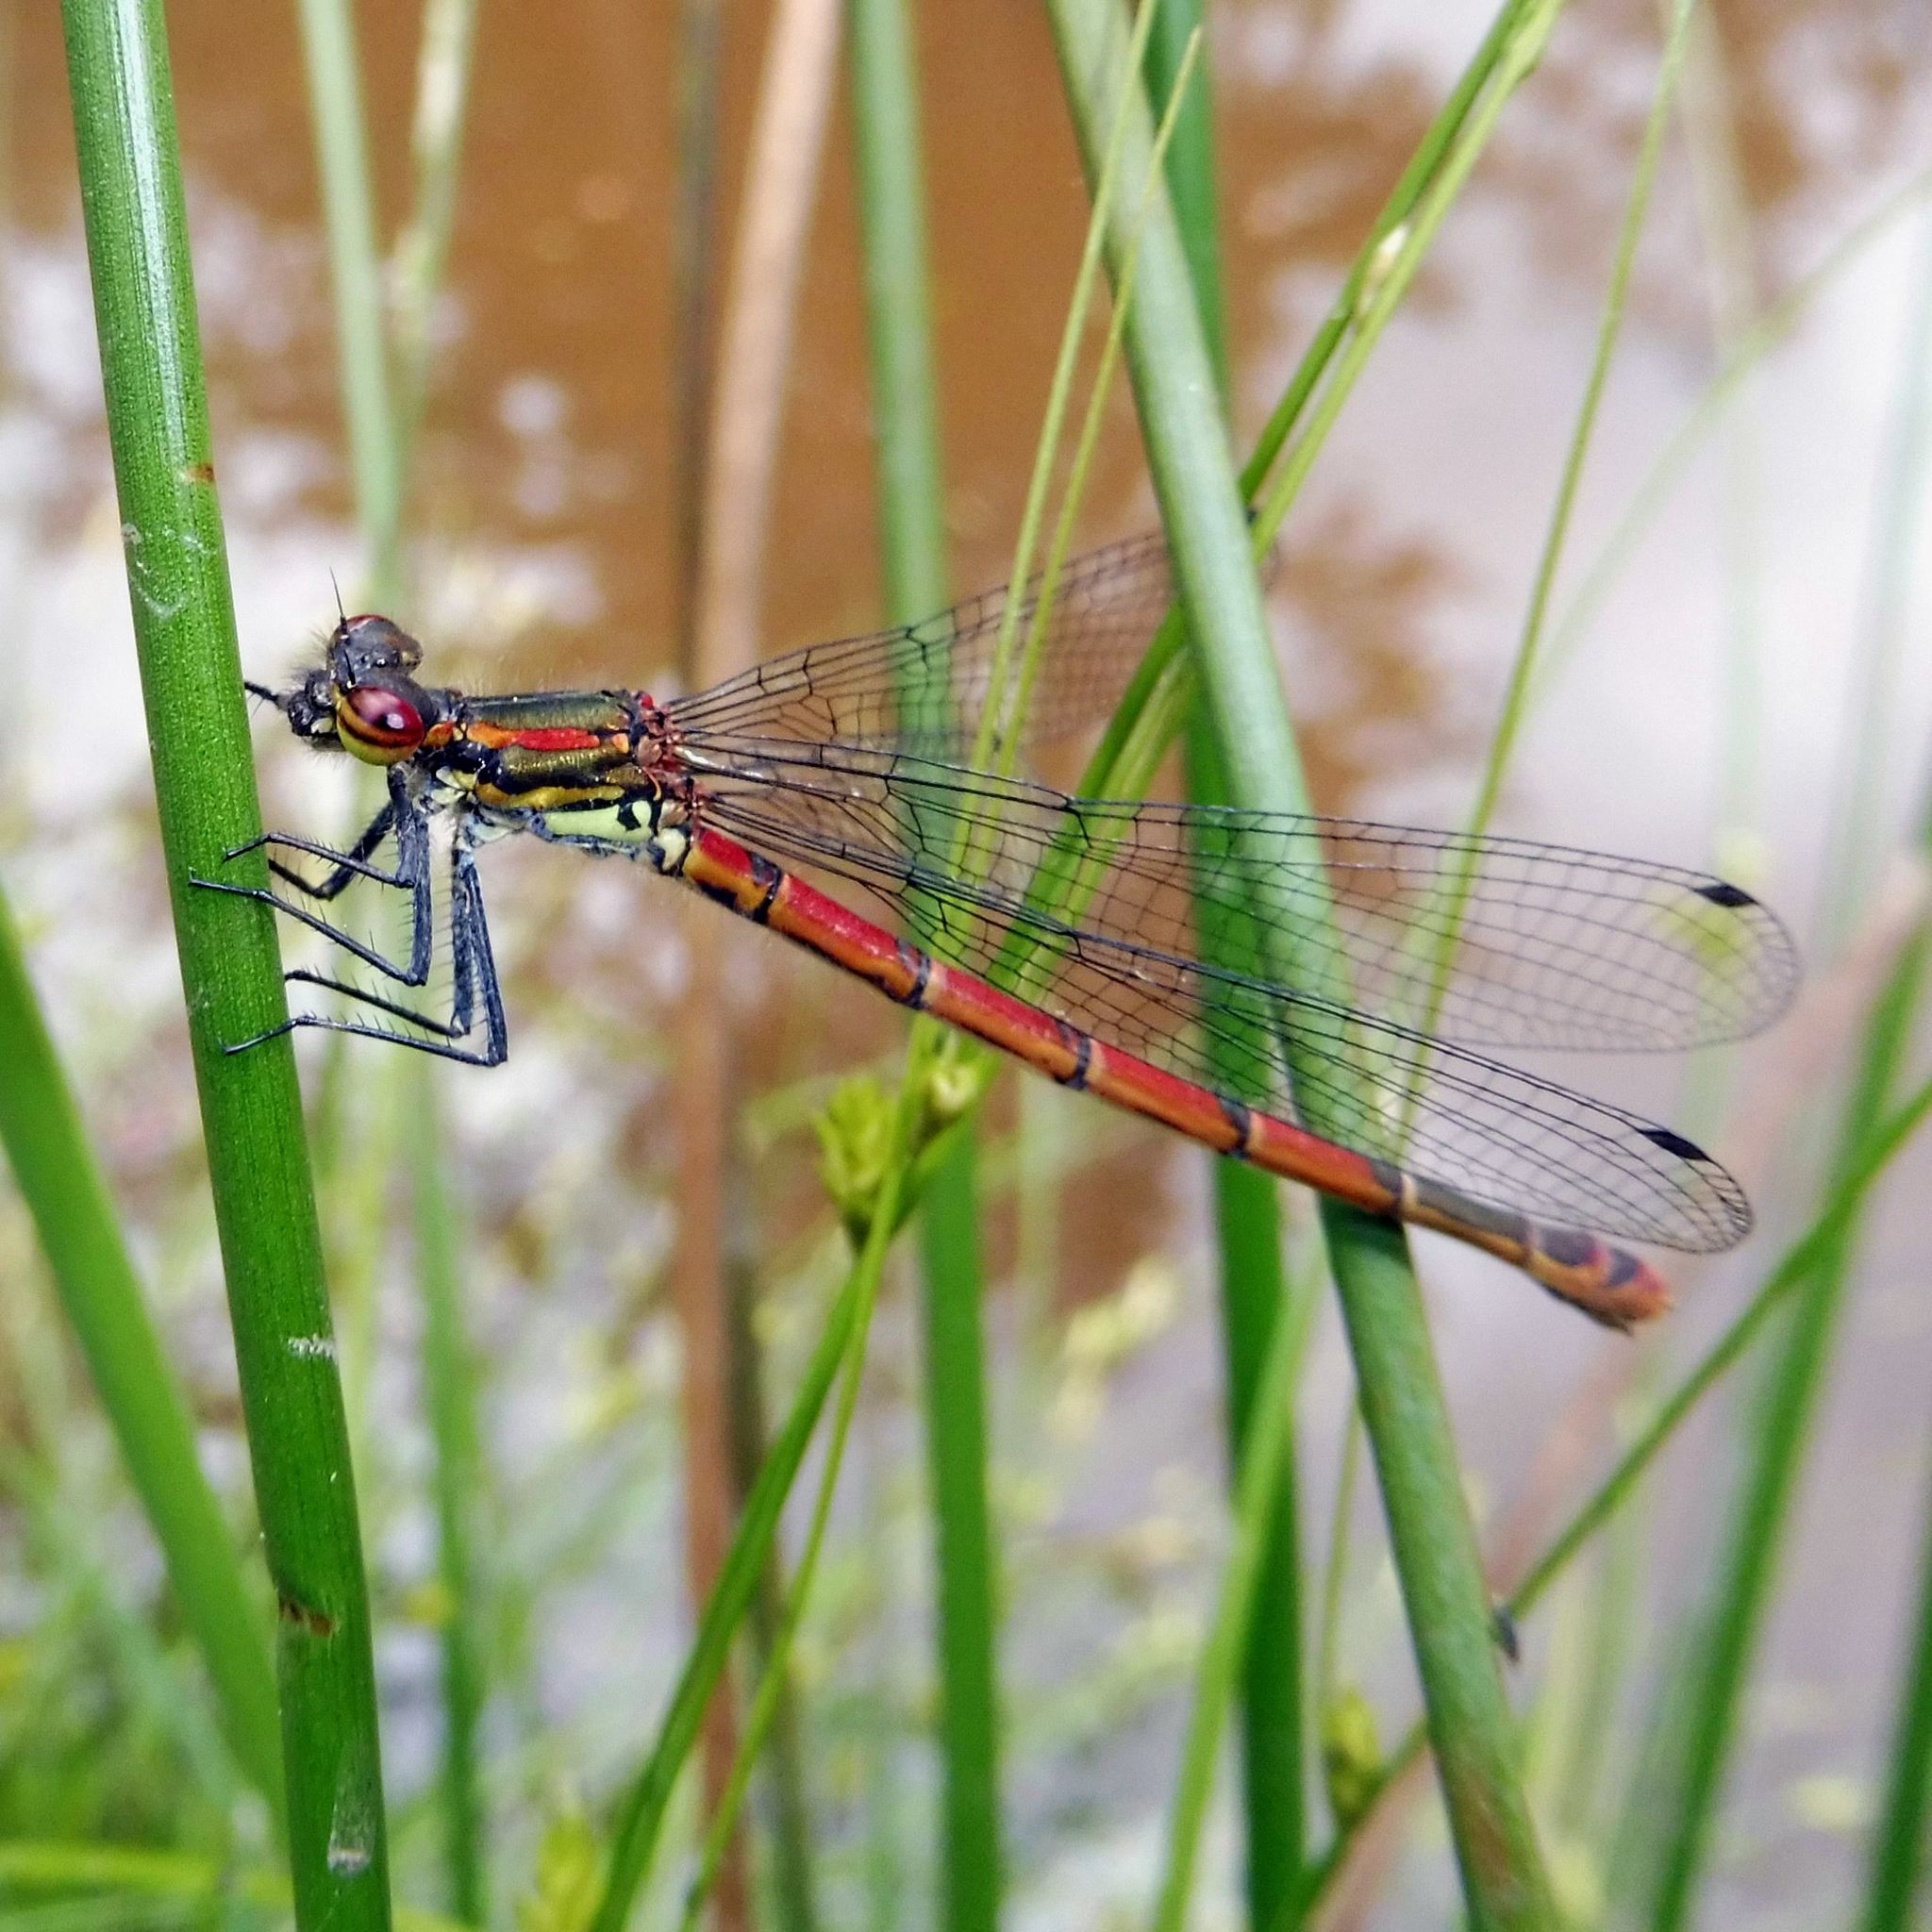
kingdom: Animalia
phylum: Arthropoda
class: Insecta
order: Odonata
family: Coenagrionidae
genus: Pyrrhosoma
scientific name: Pyrrhosoma nymphula
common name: Large red damsel
